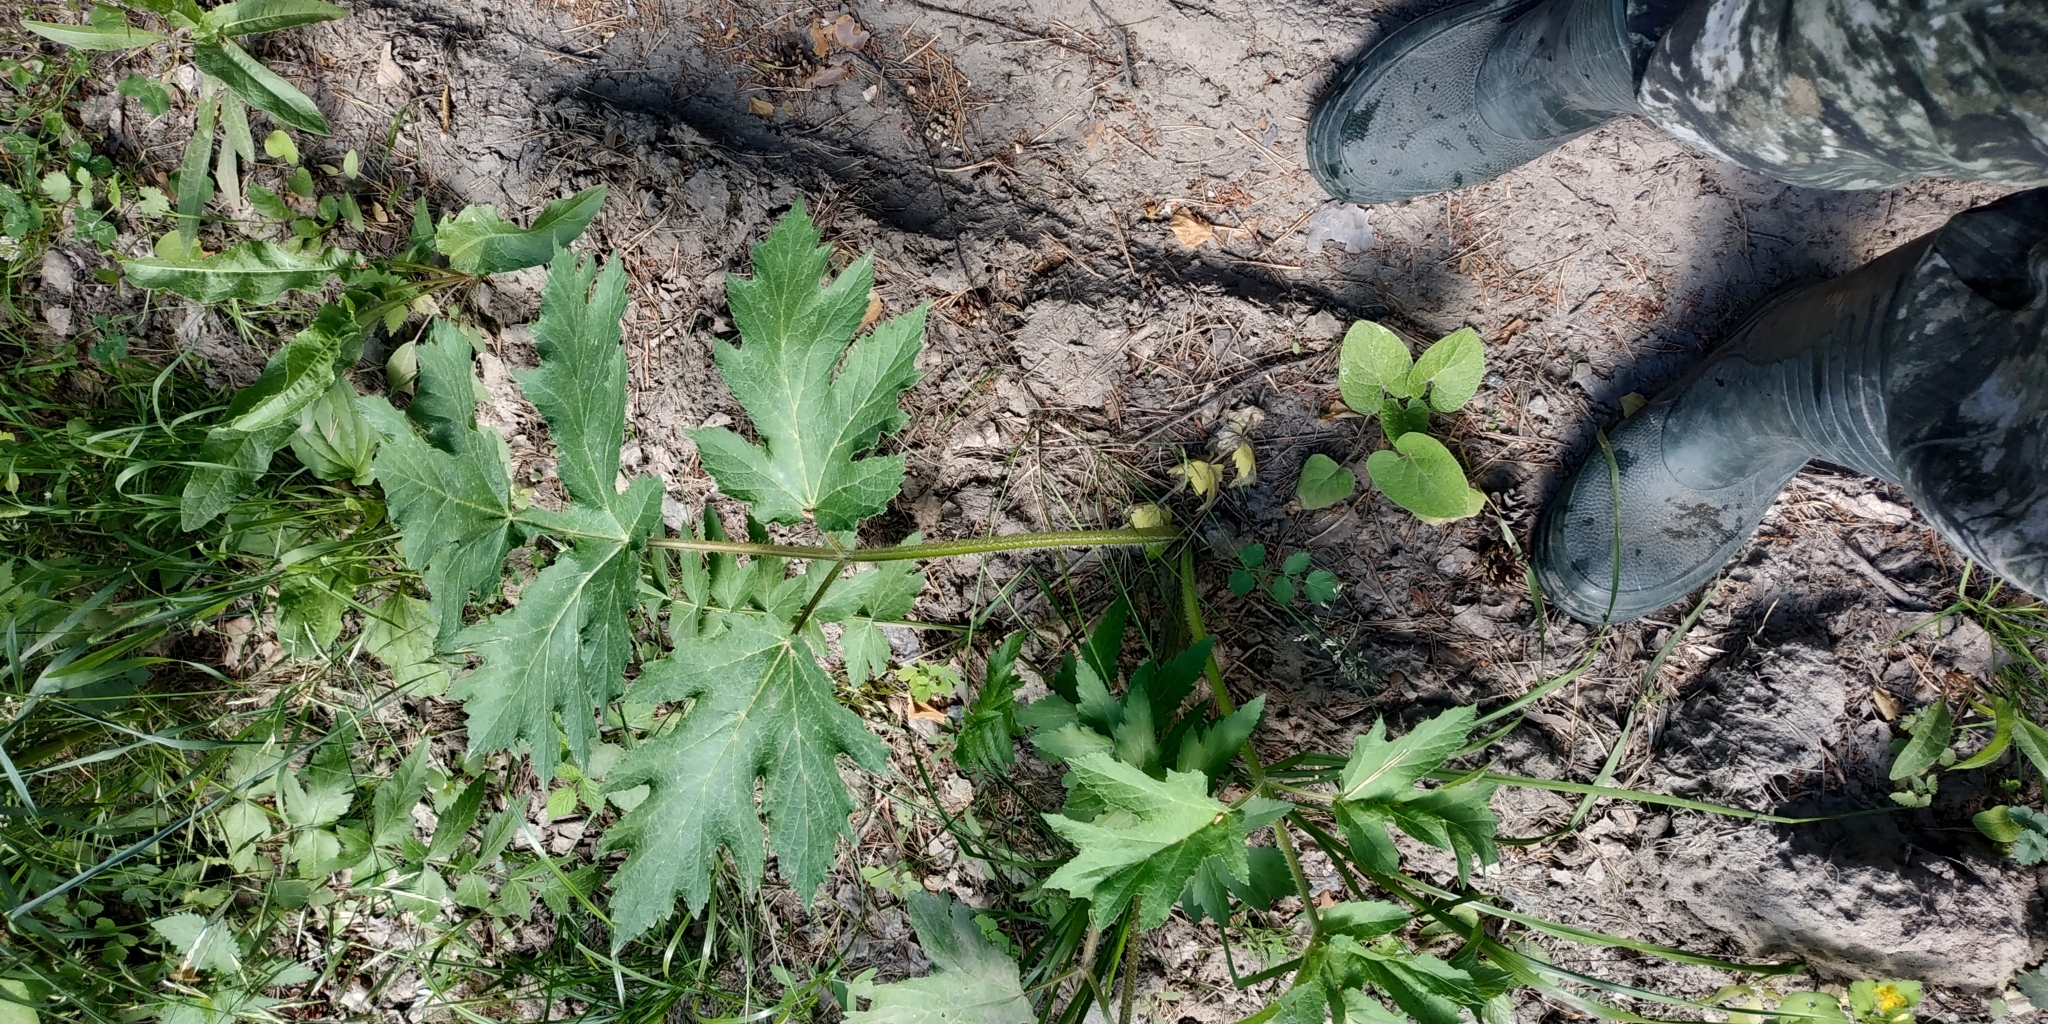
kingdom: Plantae
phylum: Tracheophyta
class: Magnoliopsida
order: Apiales
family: Apiaceae
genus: Heracleum
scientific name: Heracleum sphondylium
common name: Hogweed
